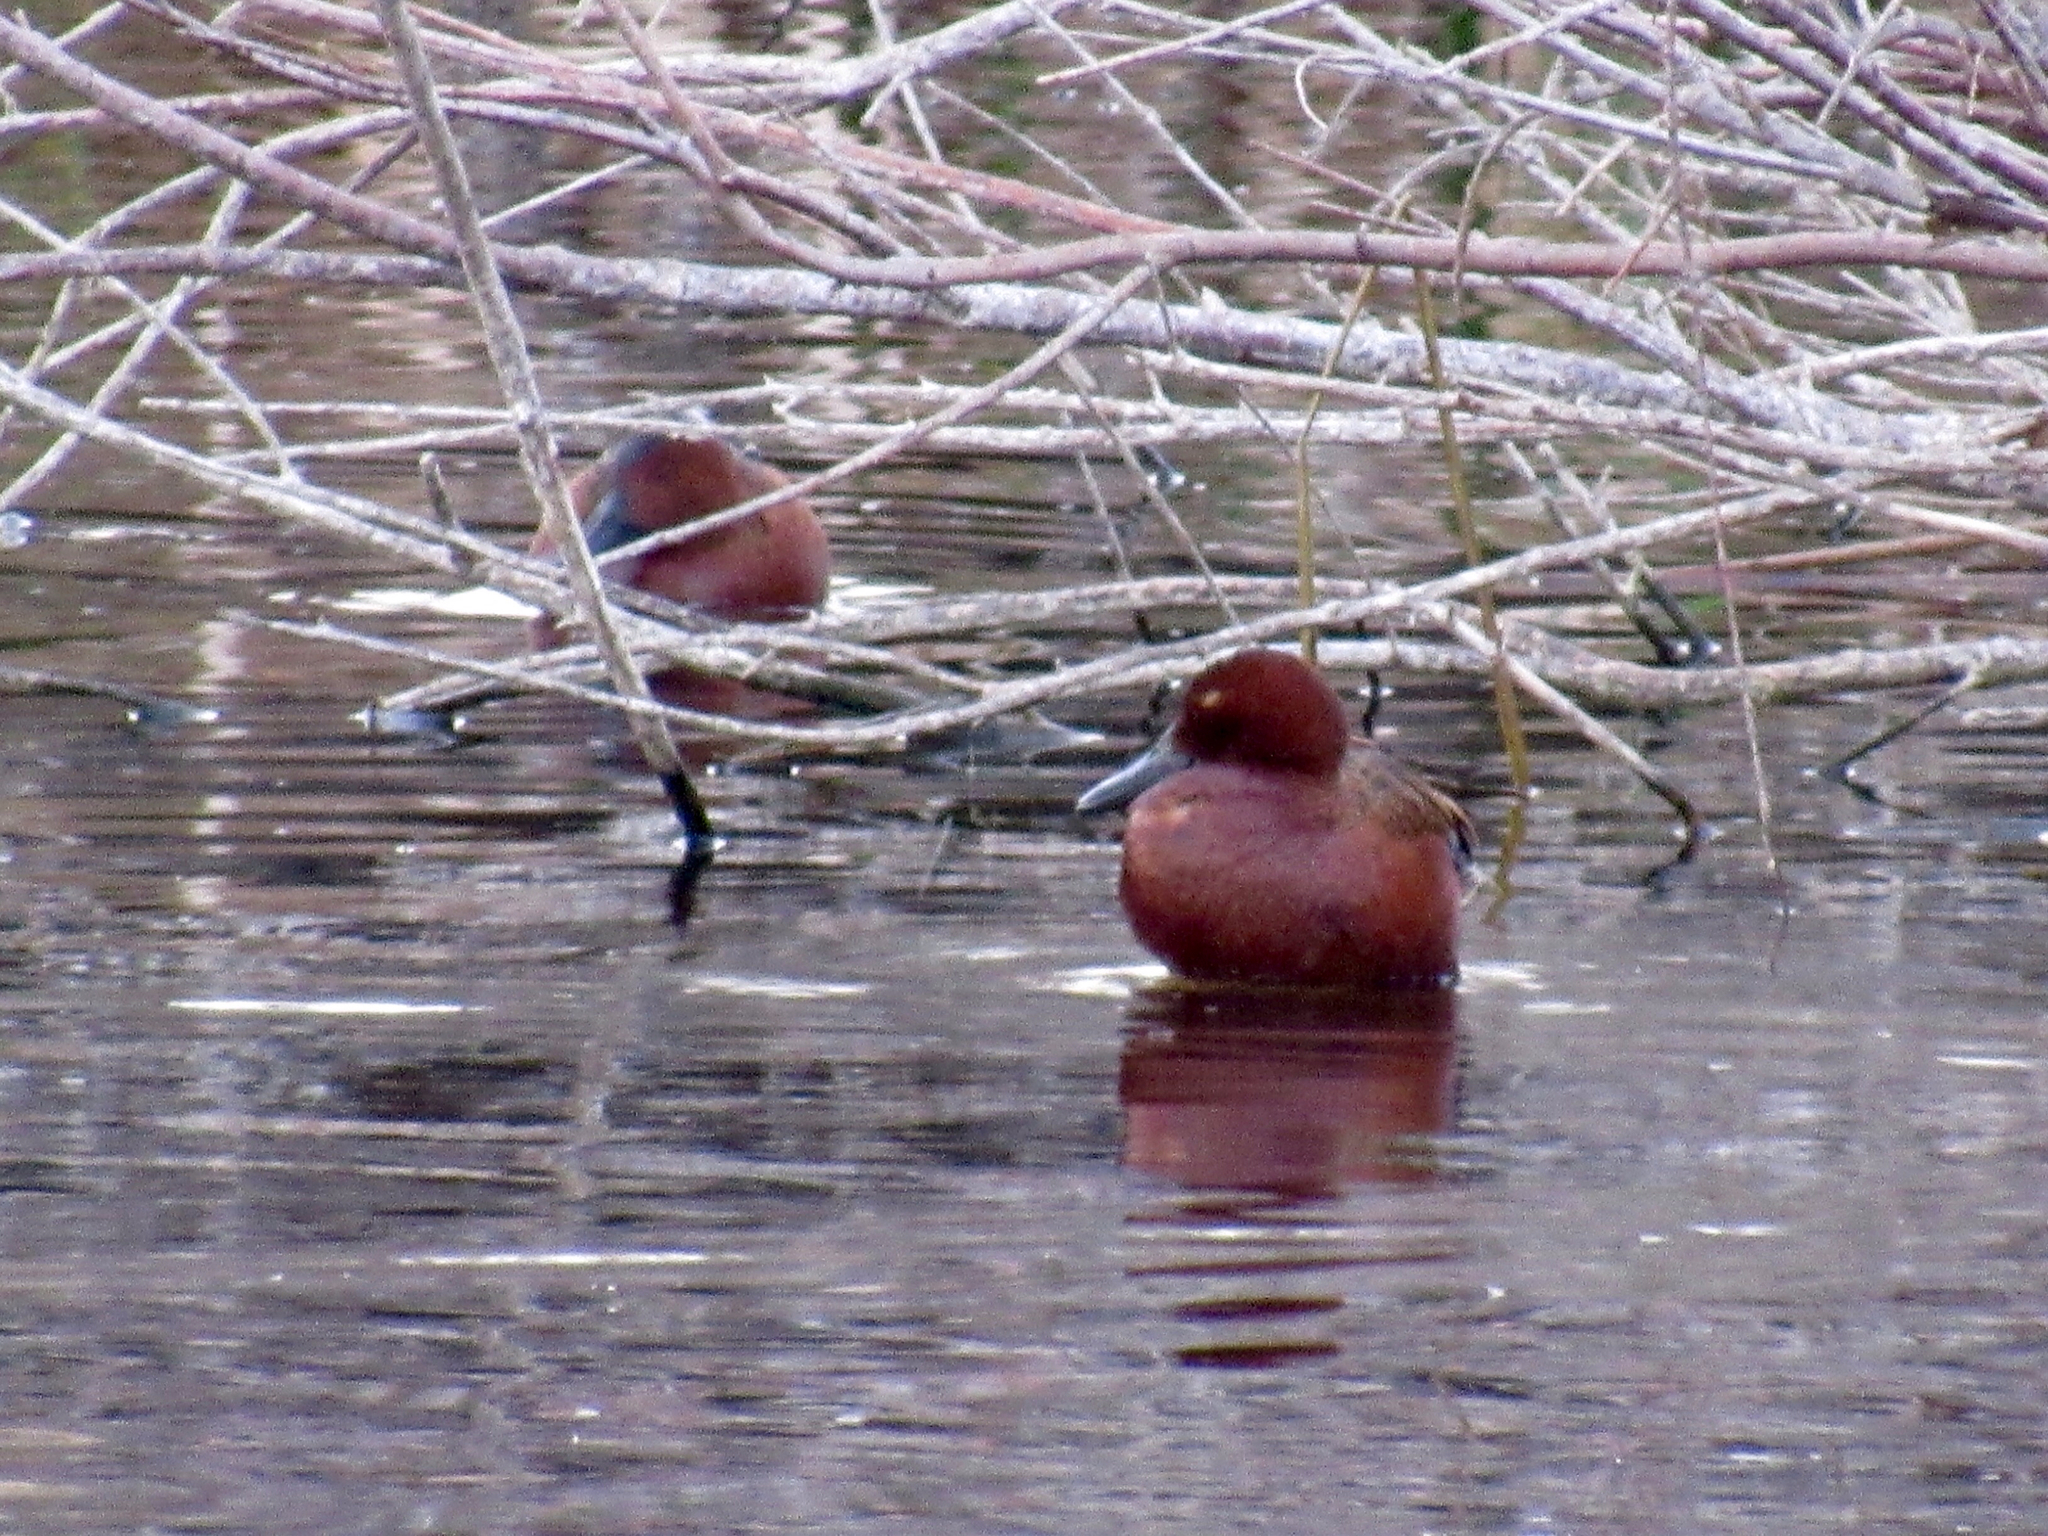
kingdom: Animalia
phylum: Chordata
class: Aves
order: Anseriformes
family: Anatidae
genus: Spatula
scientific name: Spatula cyanoptera
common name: Cinnamon teal
